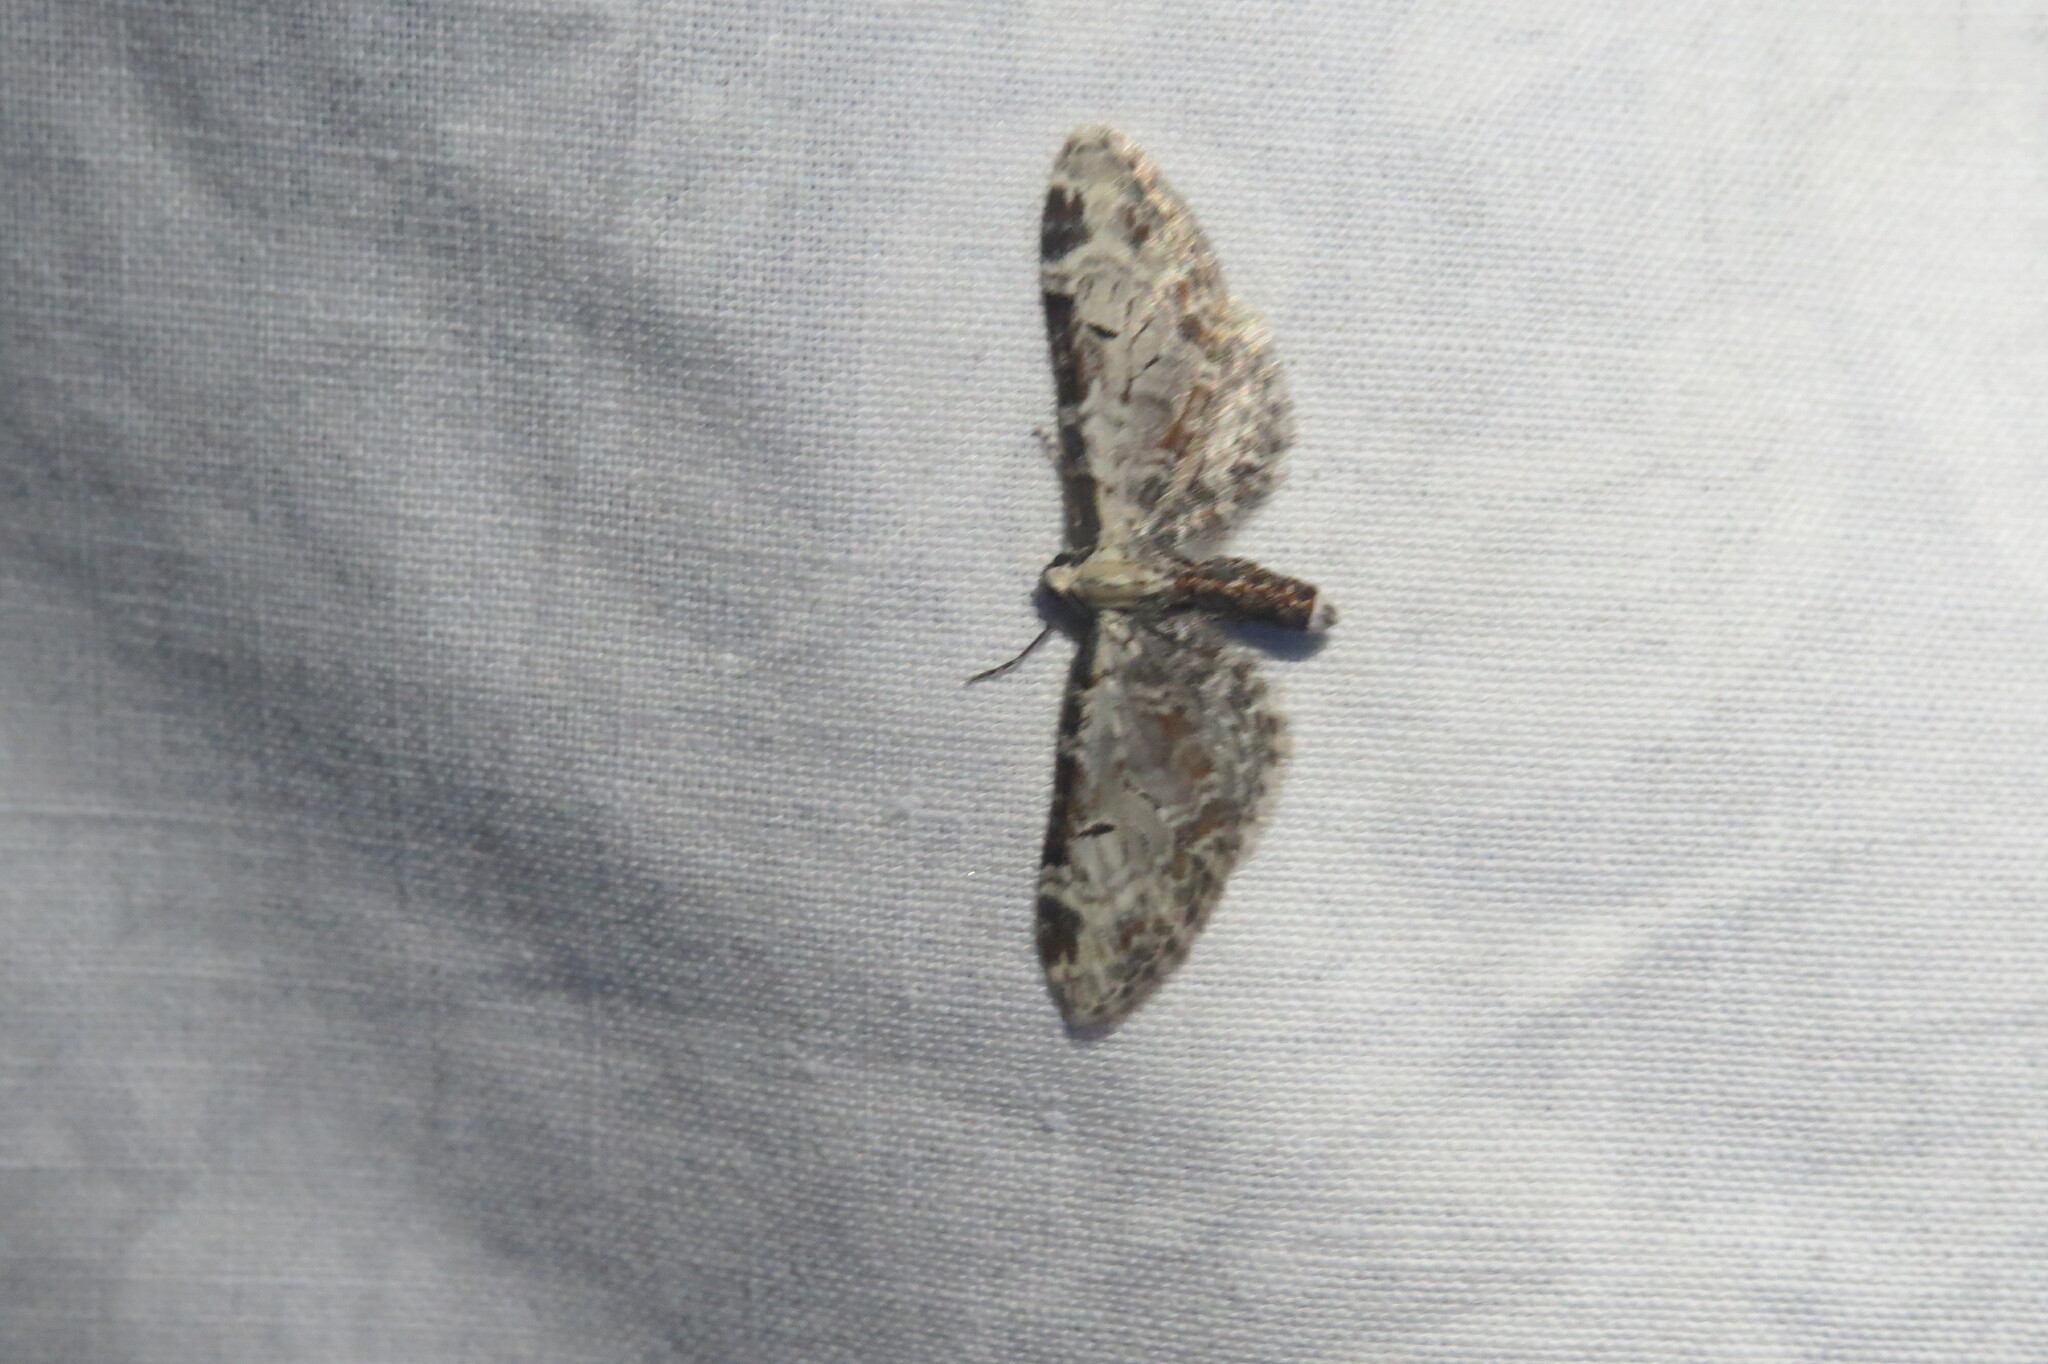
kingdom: Animalia
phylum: Arthropoda
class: Insecta
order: Lepidoptera
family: Geometridae
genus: Eupithecia
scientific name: Eupithecia ravocostaliata
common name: Great varigated pug
